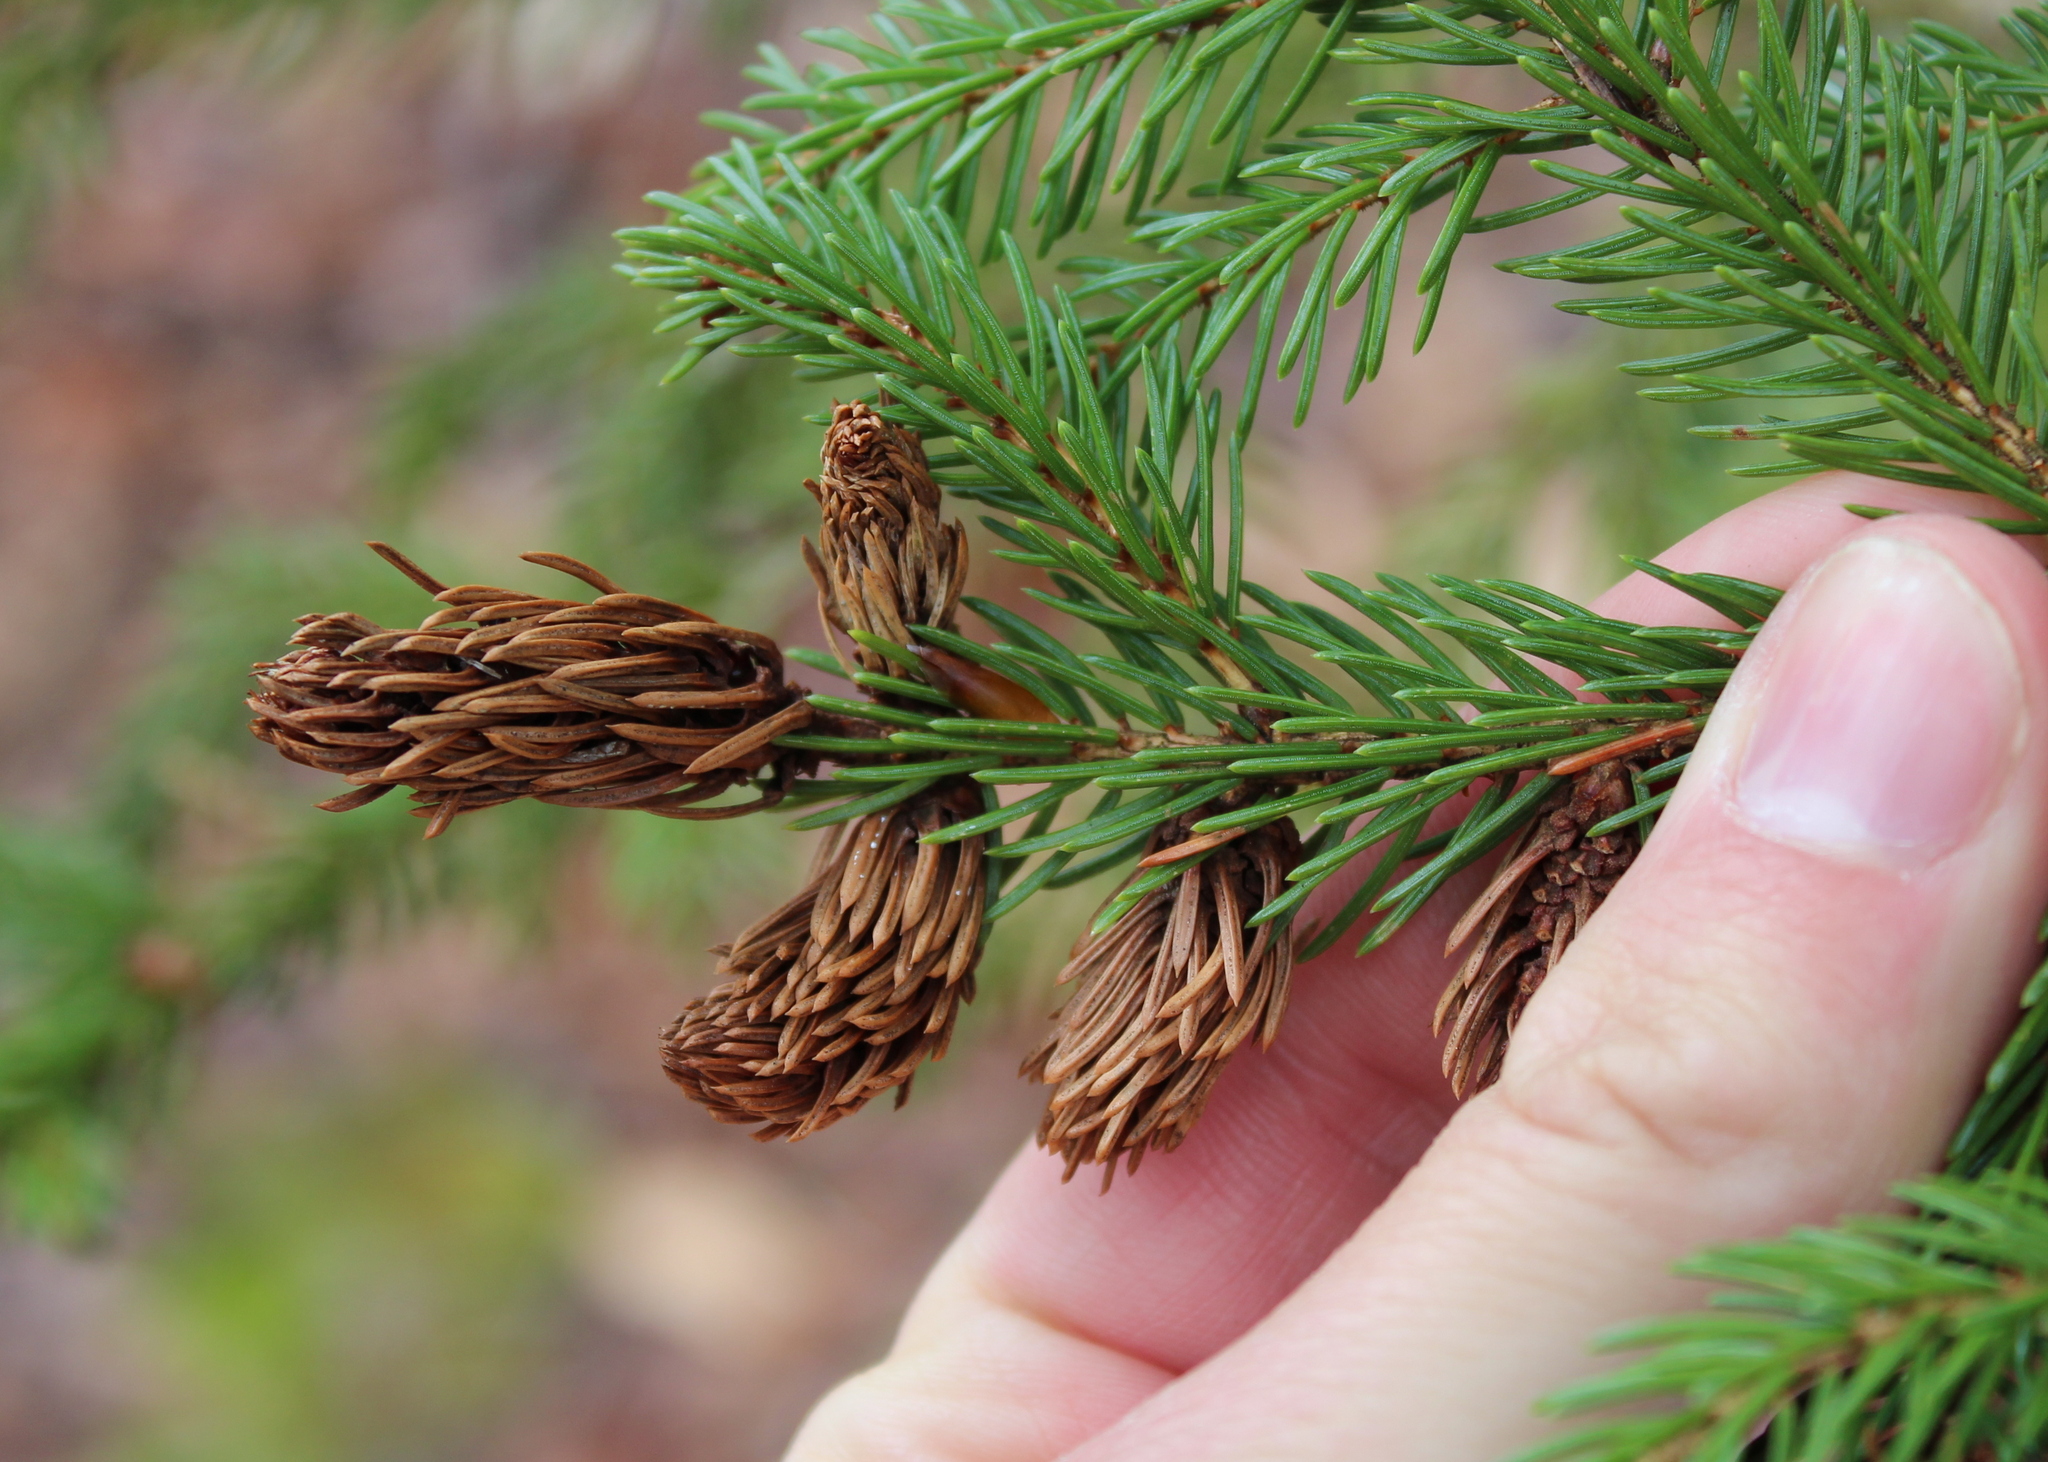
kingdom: Animalia
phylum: Arthropoda
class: Insecta
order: Hemiptera
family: Adelgidae
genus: Adelges
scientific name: Adelges abietis
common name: Eastern spruce gall adelgid
